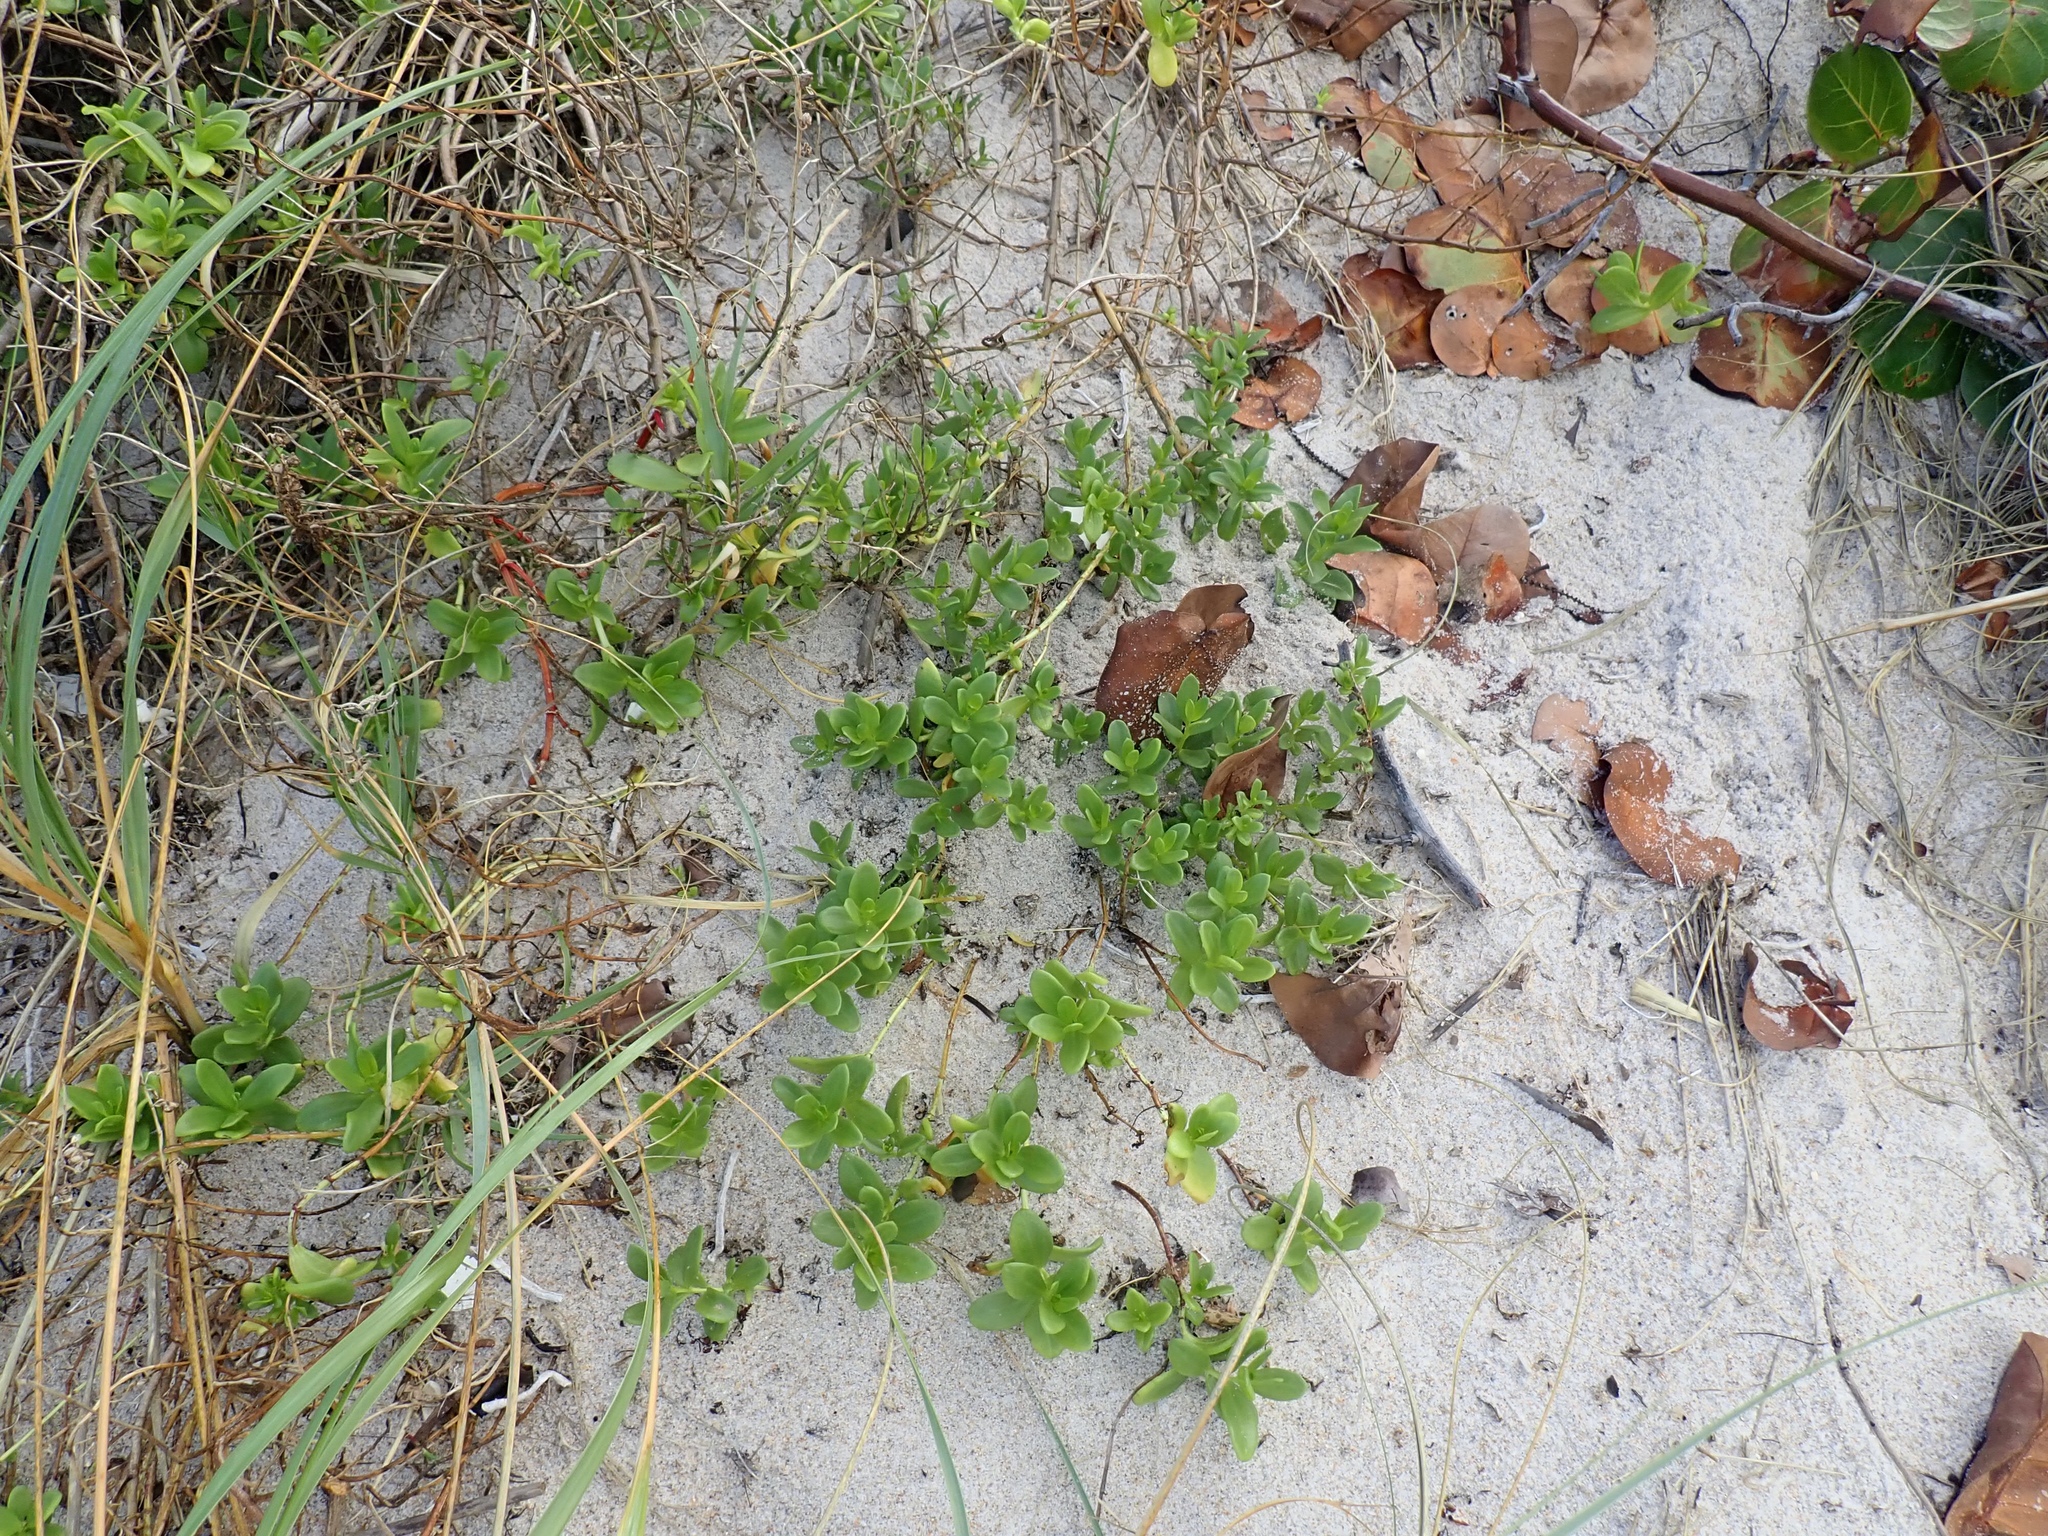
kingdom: Plantae
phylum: Tracheophyta
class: Magnoliopsida
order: Asterales
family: Asteraceae
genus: Iva
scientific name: Iva imbricata
